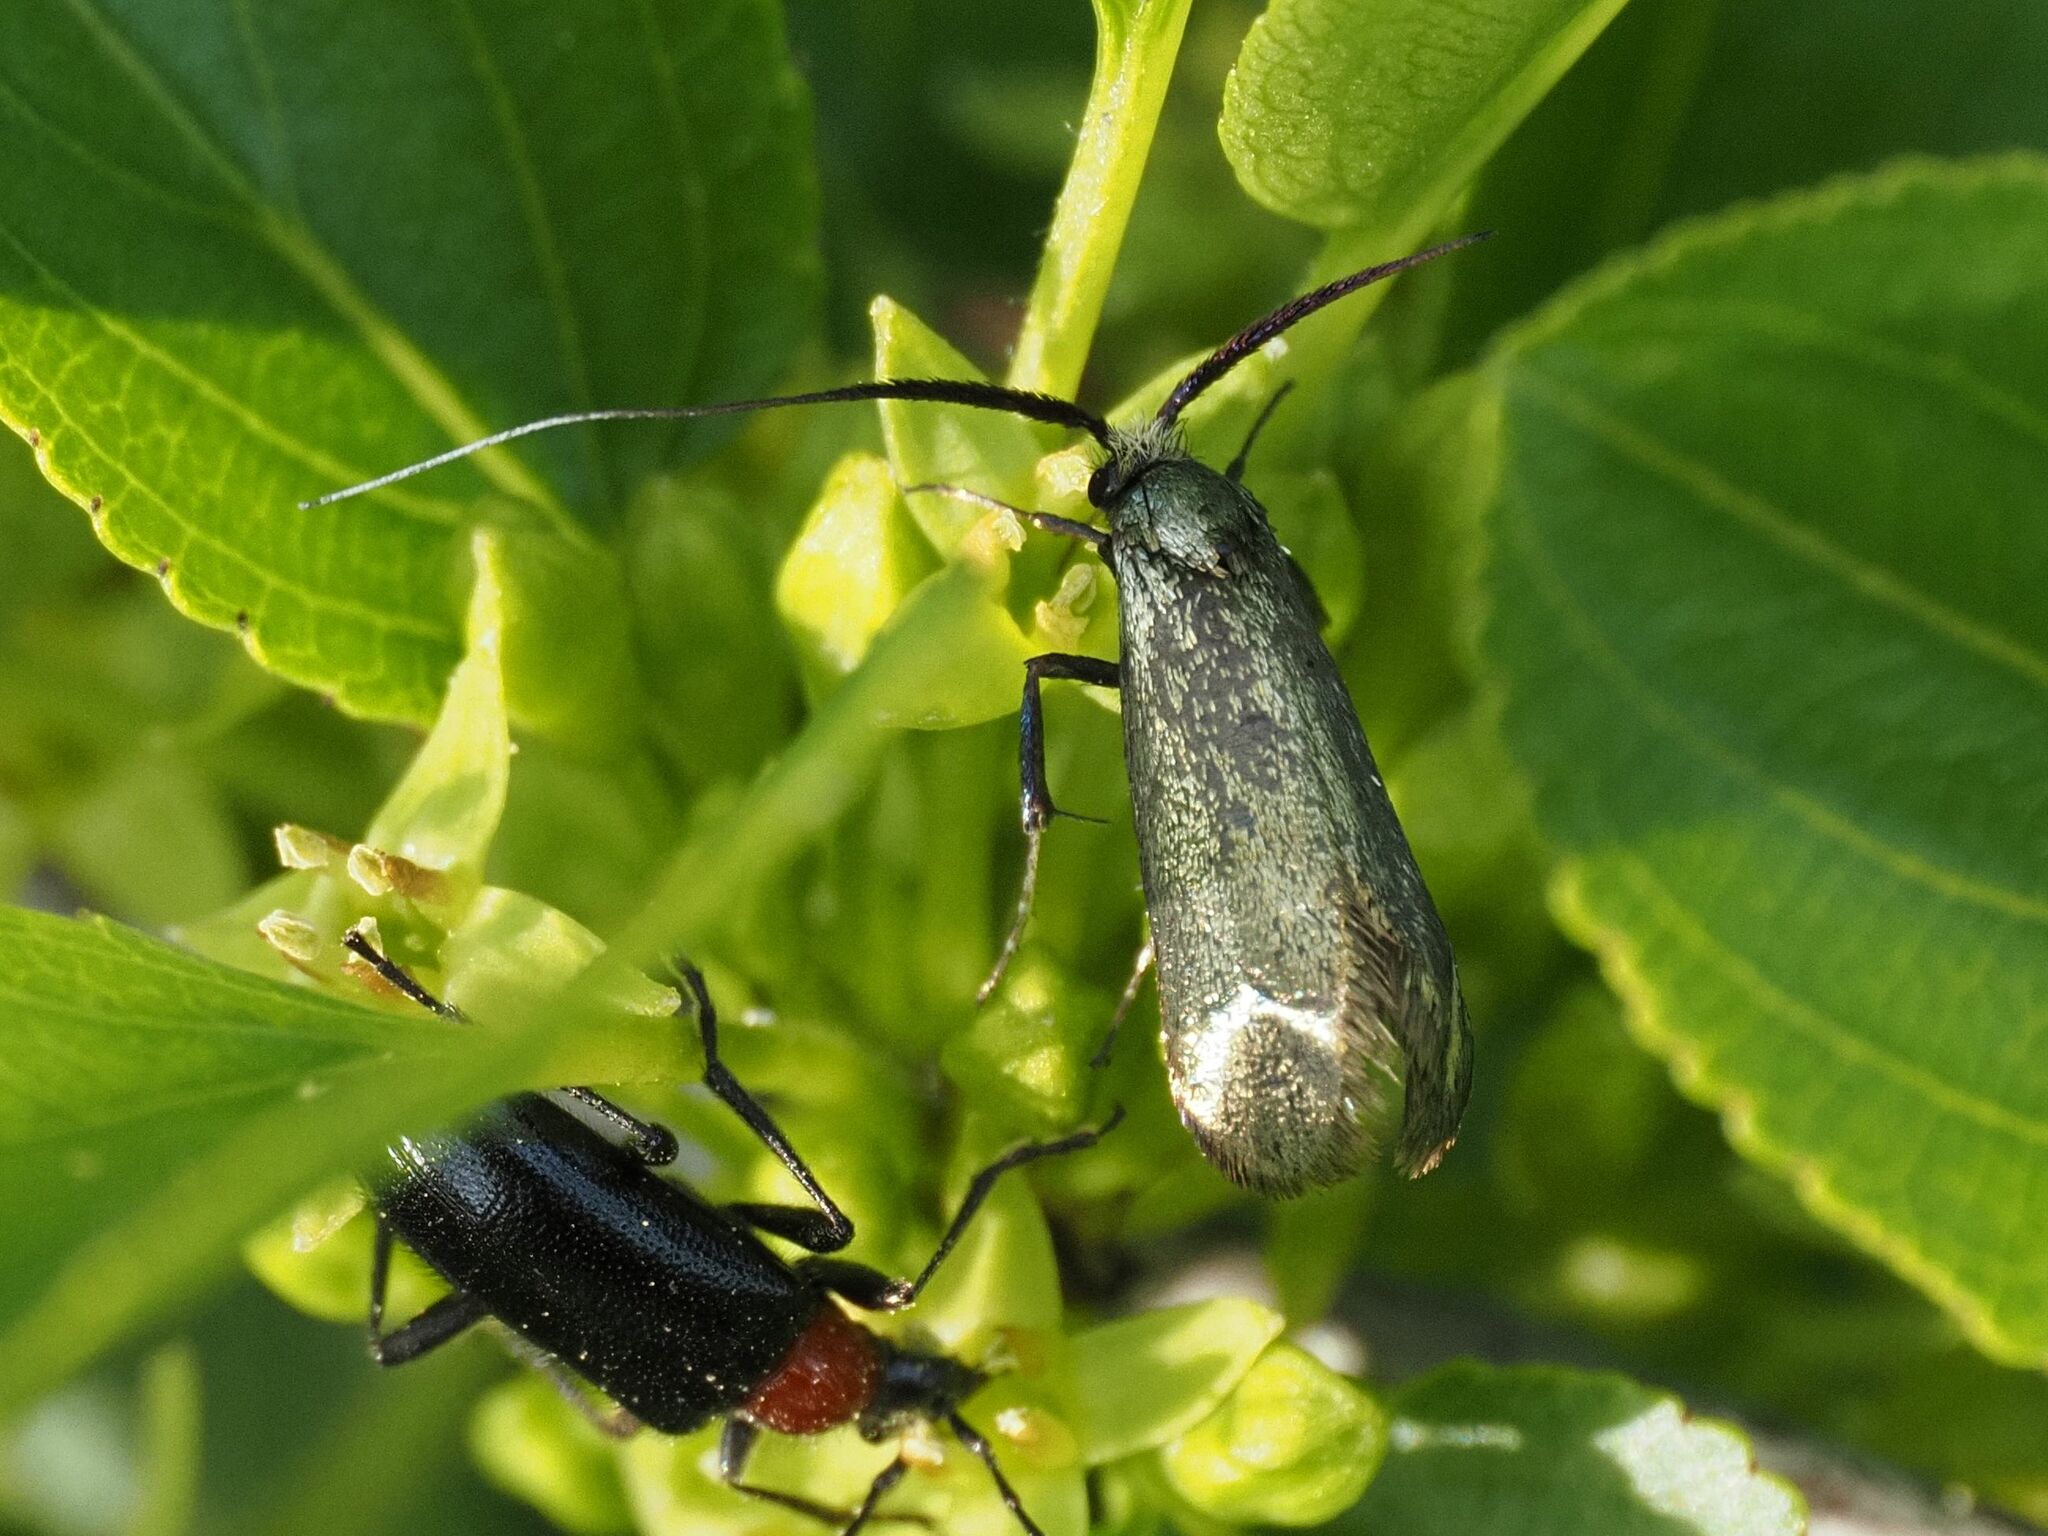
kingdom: Animalia
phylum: Arthropoda
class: Insecta
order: Lepidoptera
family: Adelidae
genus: Adela
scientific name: Adela viridella
